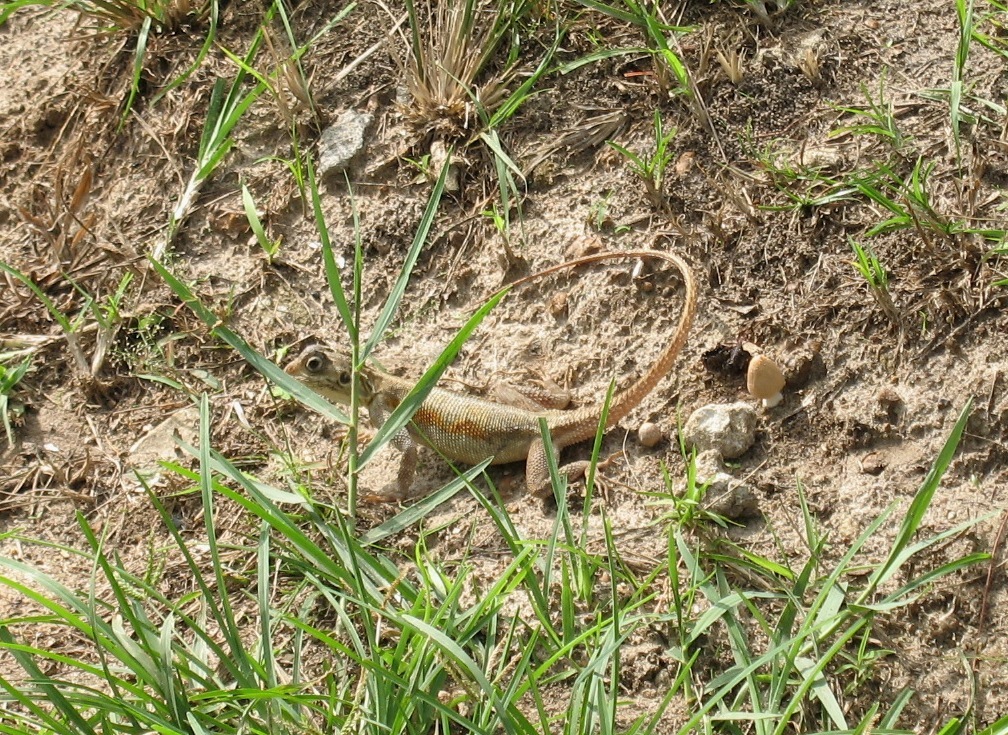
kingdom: Animalia
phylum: Chordata
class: Squamata
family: Agamidae
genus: Agama
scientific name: Agama picticauda
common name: Red-headed agama
